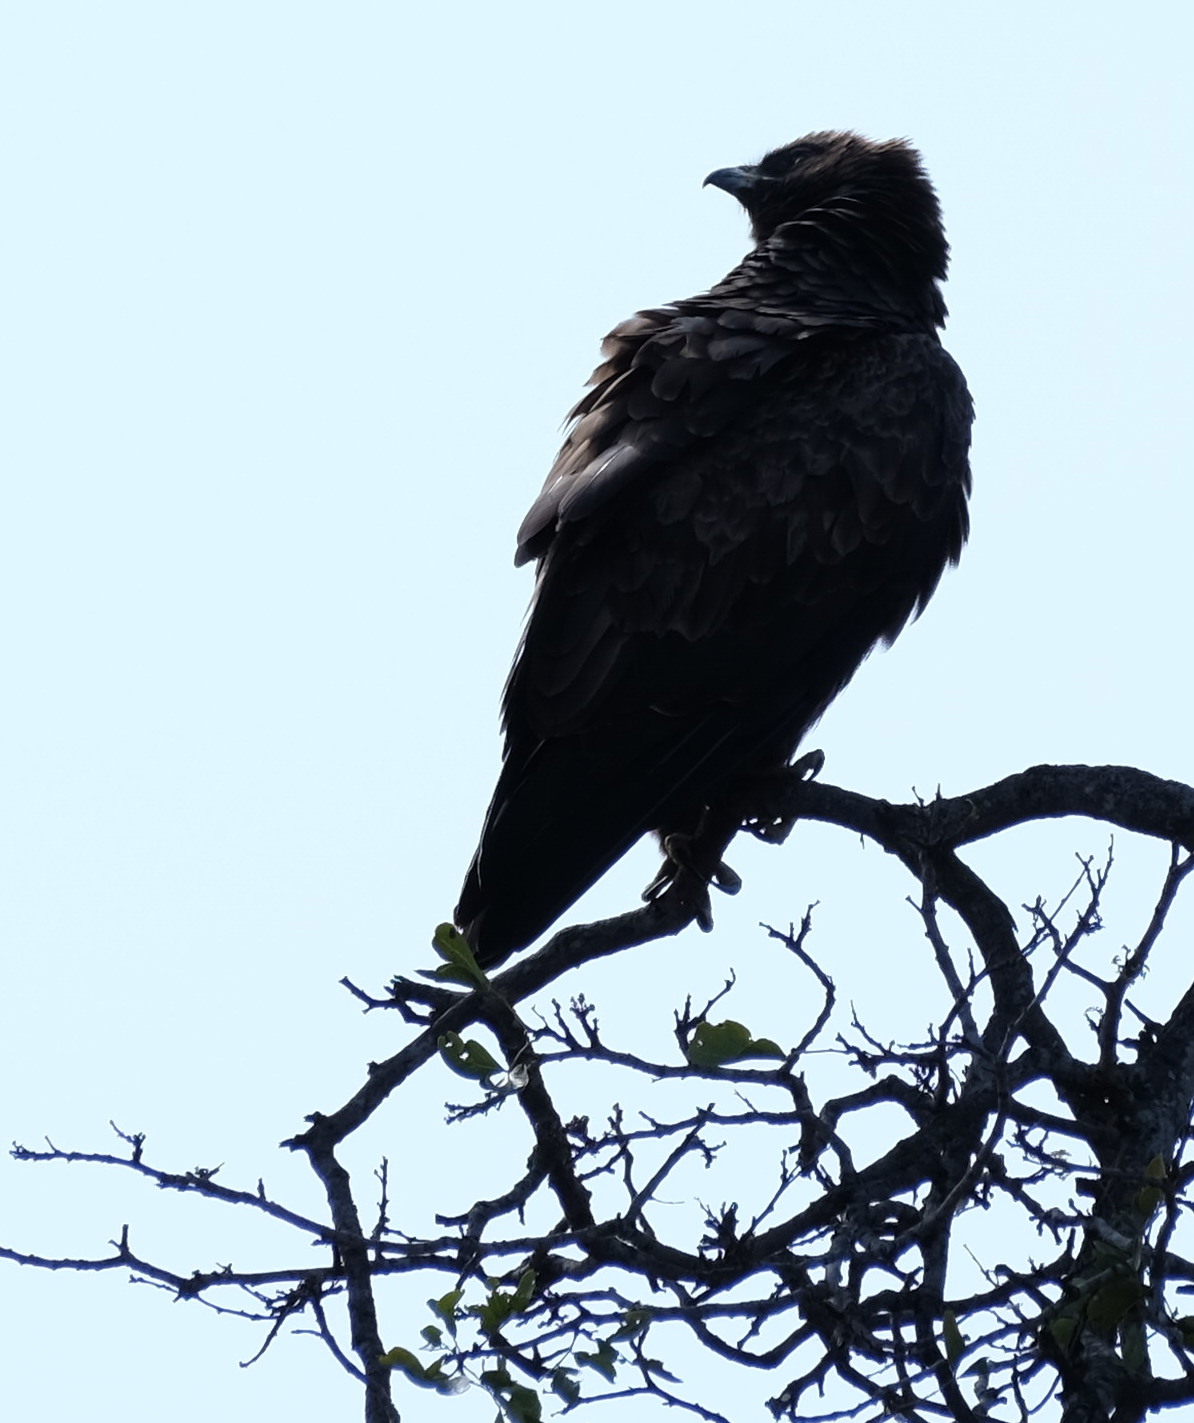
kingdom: Animalia
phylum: Chordata
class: Aves
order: Accipitriformes
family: Accipitridae
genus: Hieraaetus
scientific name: Hieraaetus wahlbergi
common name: Wahlberg's eagle
